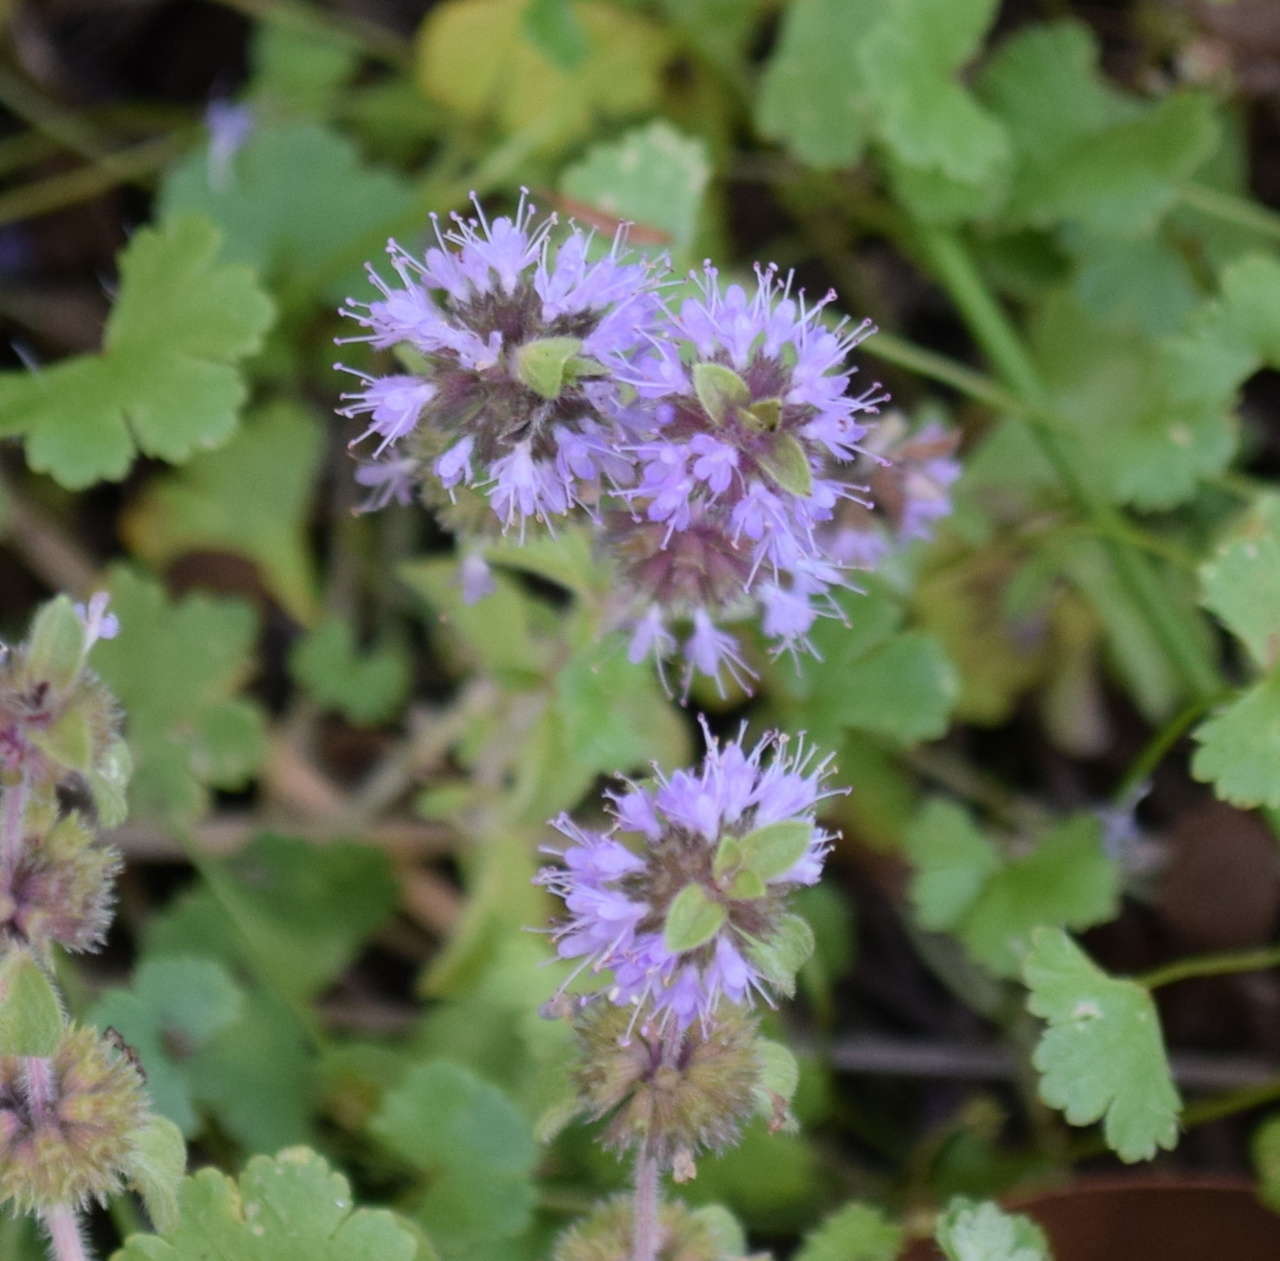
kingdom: Plantae
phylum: Tracheophyta
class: Magnoliopsida
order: Lamiales
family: Lamiaceae
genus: Mentha
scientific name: Mentha pulegium
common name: Pennyroyal
